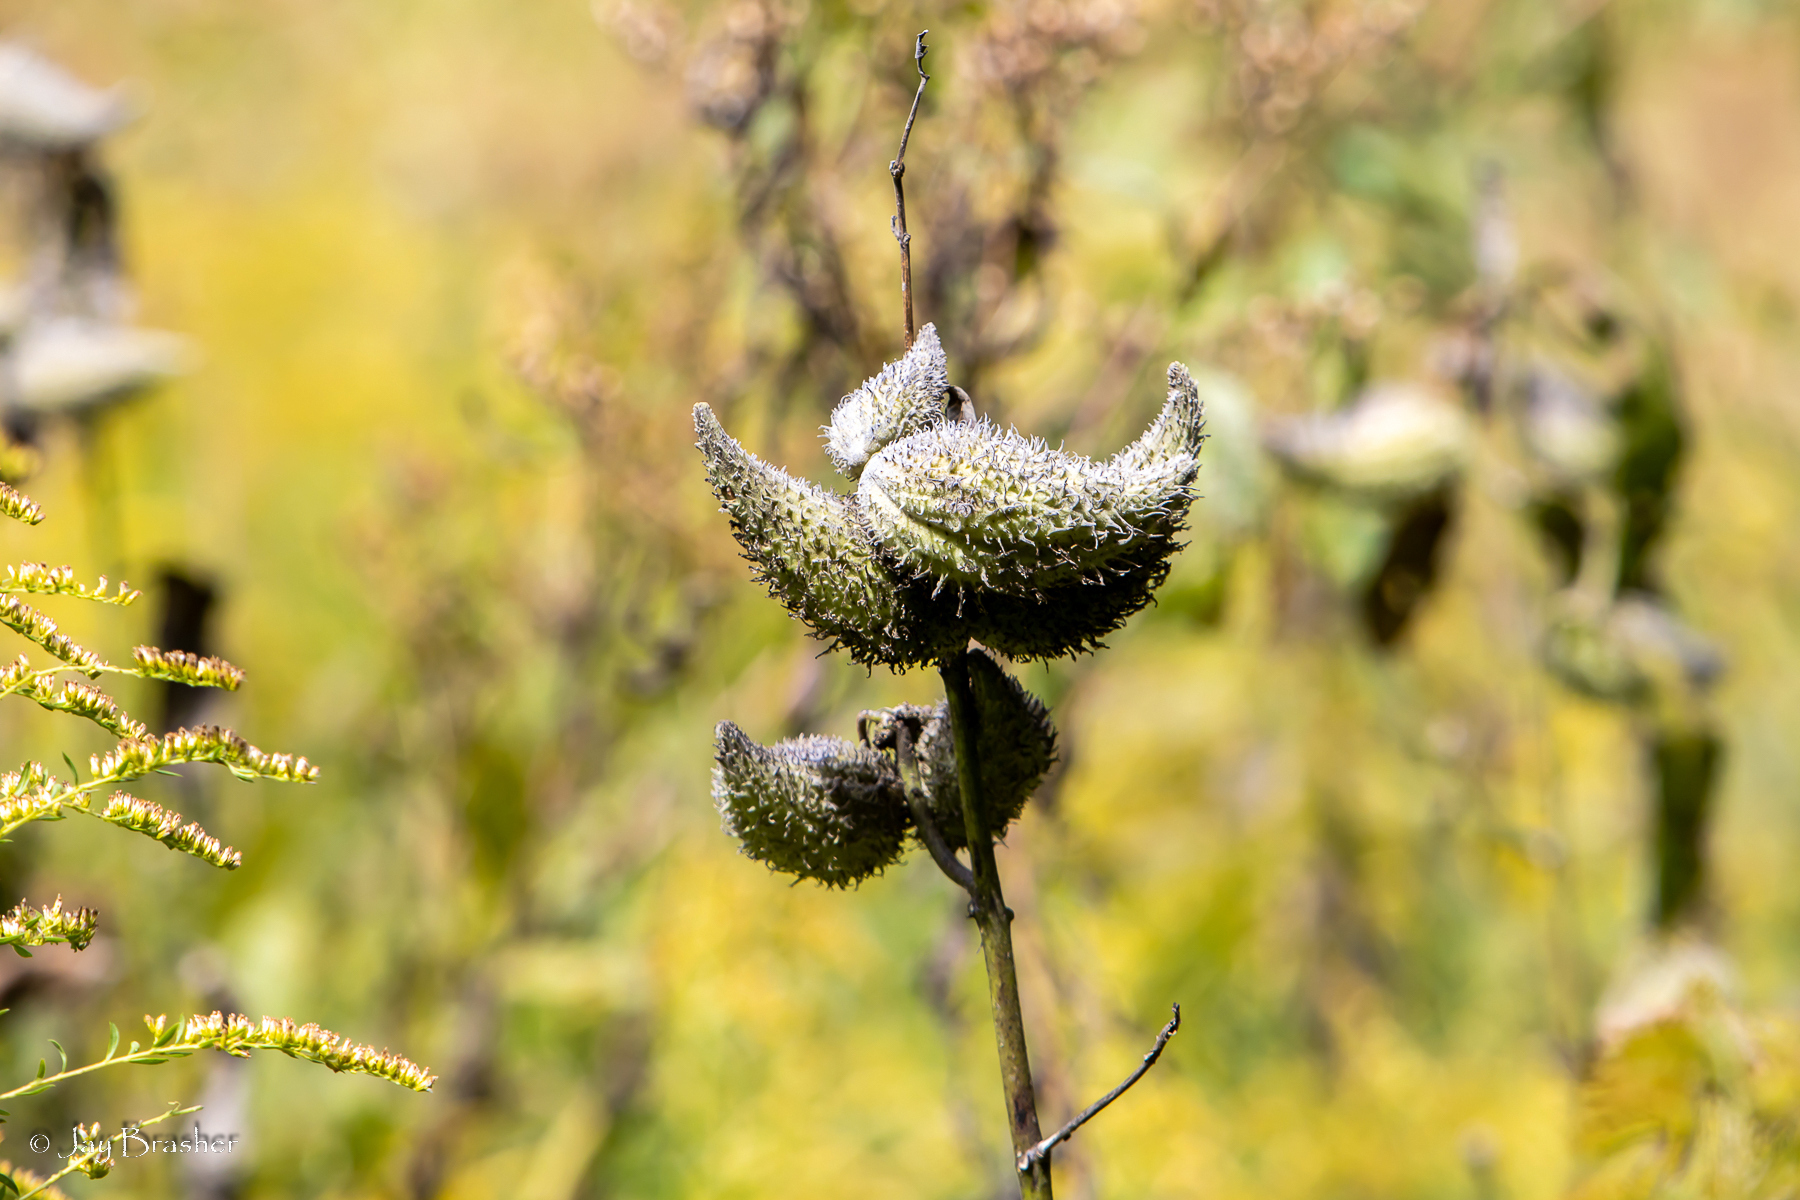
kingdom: Plantae
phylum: Tracheophyta
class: Magnoliopsida
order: Gentianales
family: Apocynaceae
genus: Asclepias
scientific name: Asclepias syriaca
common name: Common milkweed
